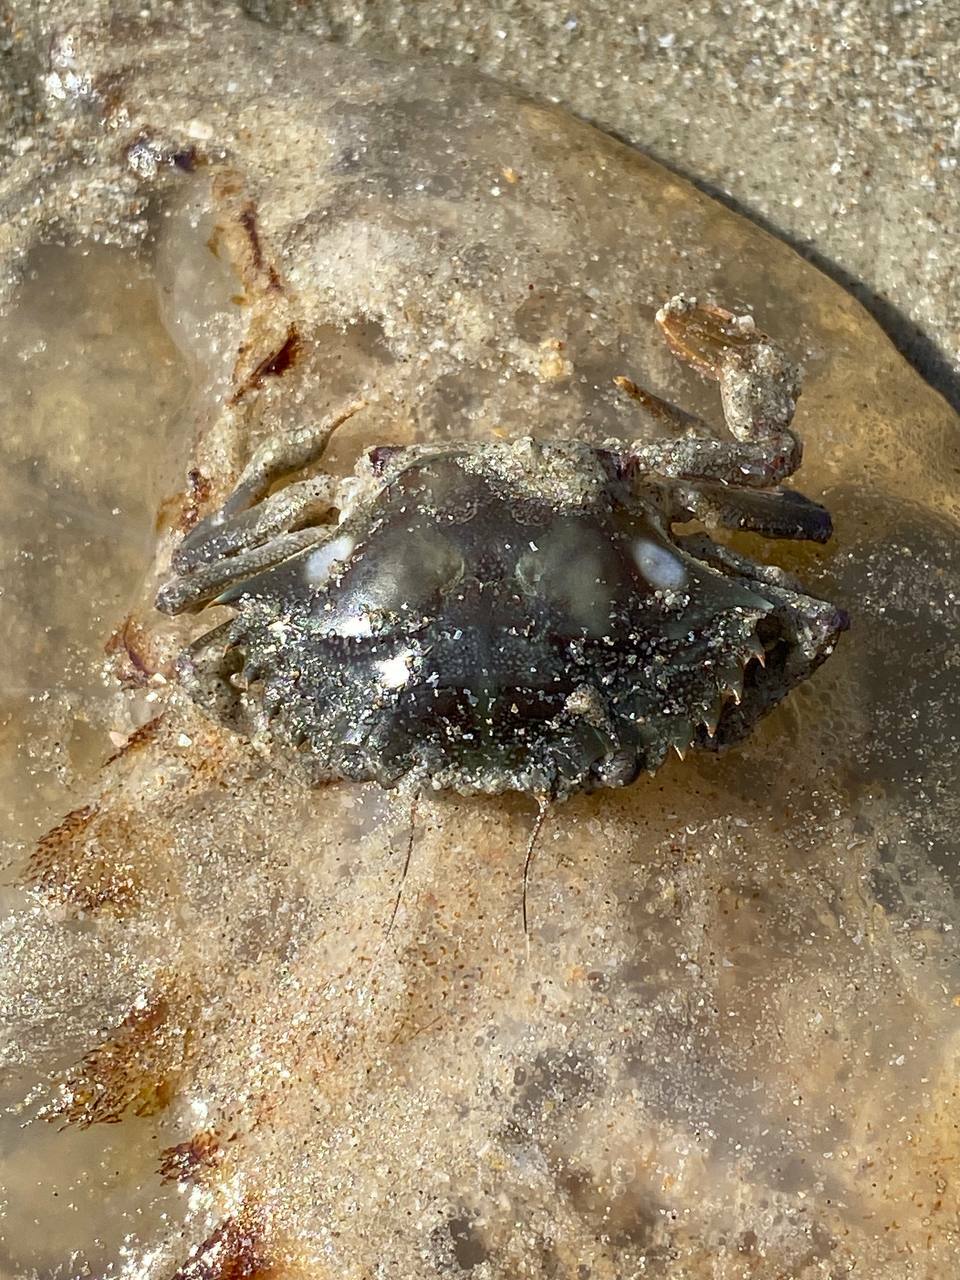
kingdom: Animalia
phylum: Arthropoda
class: Malacostraca
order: Decapoda
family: Portunidae
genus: Charybdis
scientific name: Charybdis lucifer
